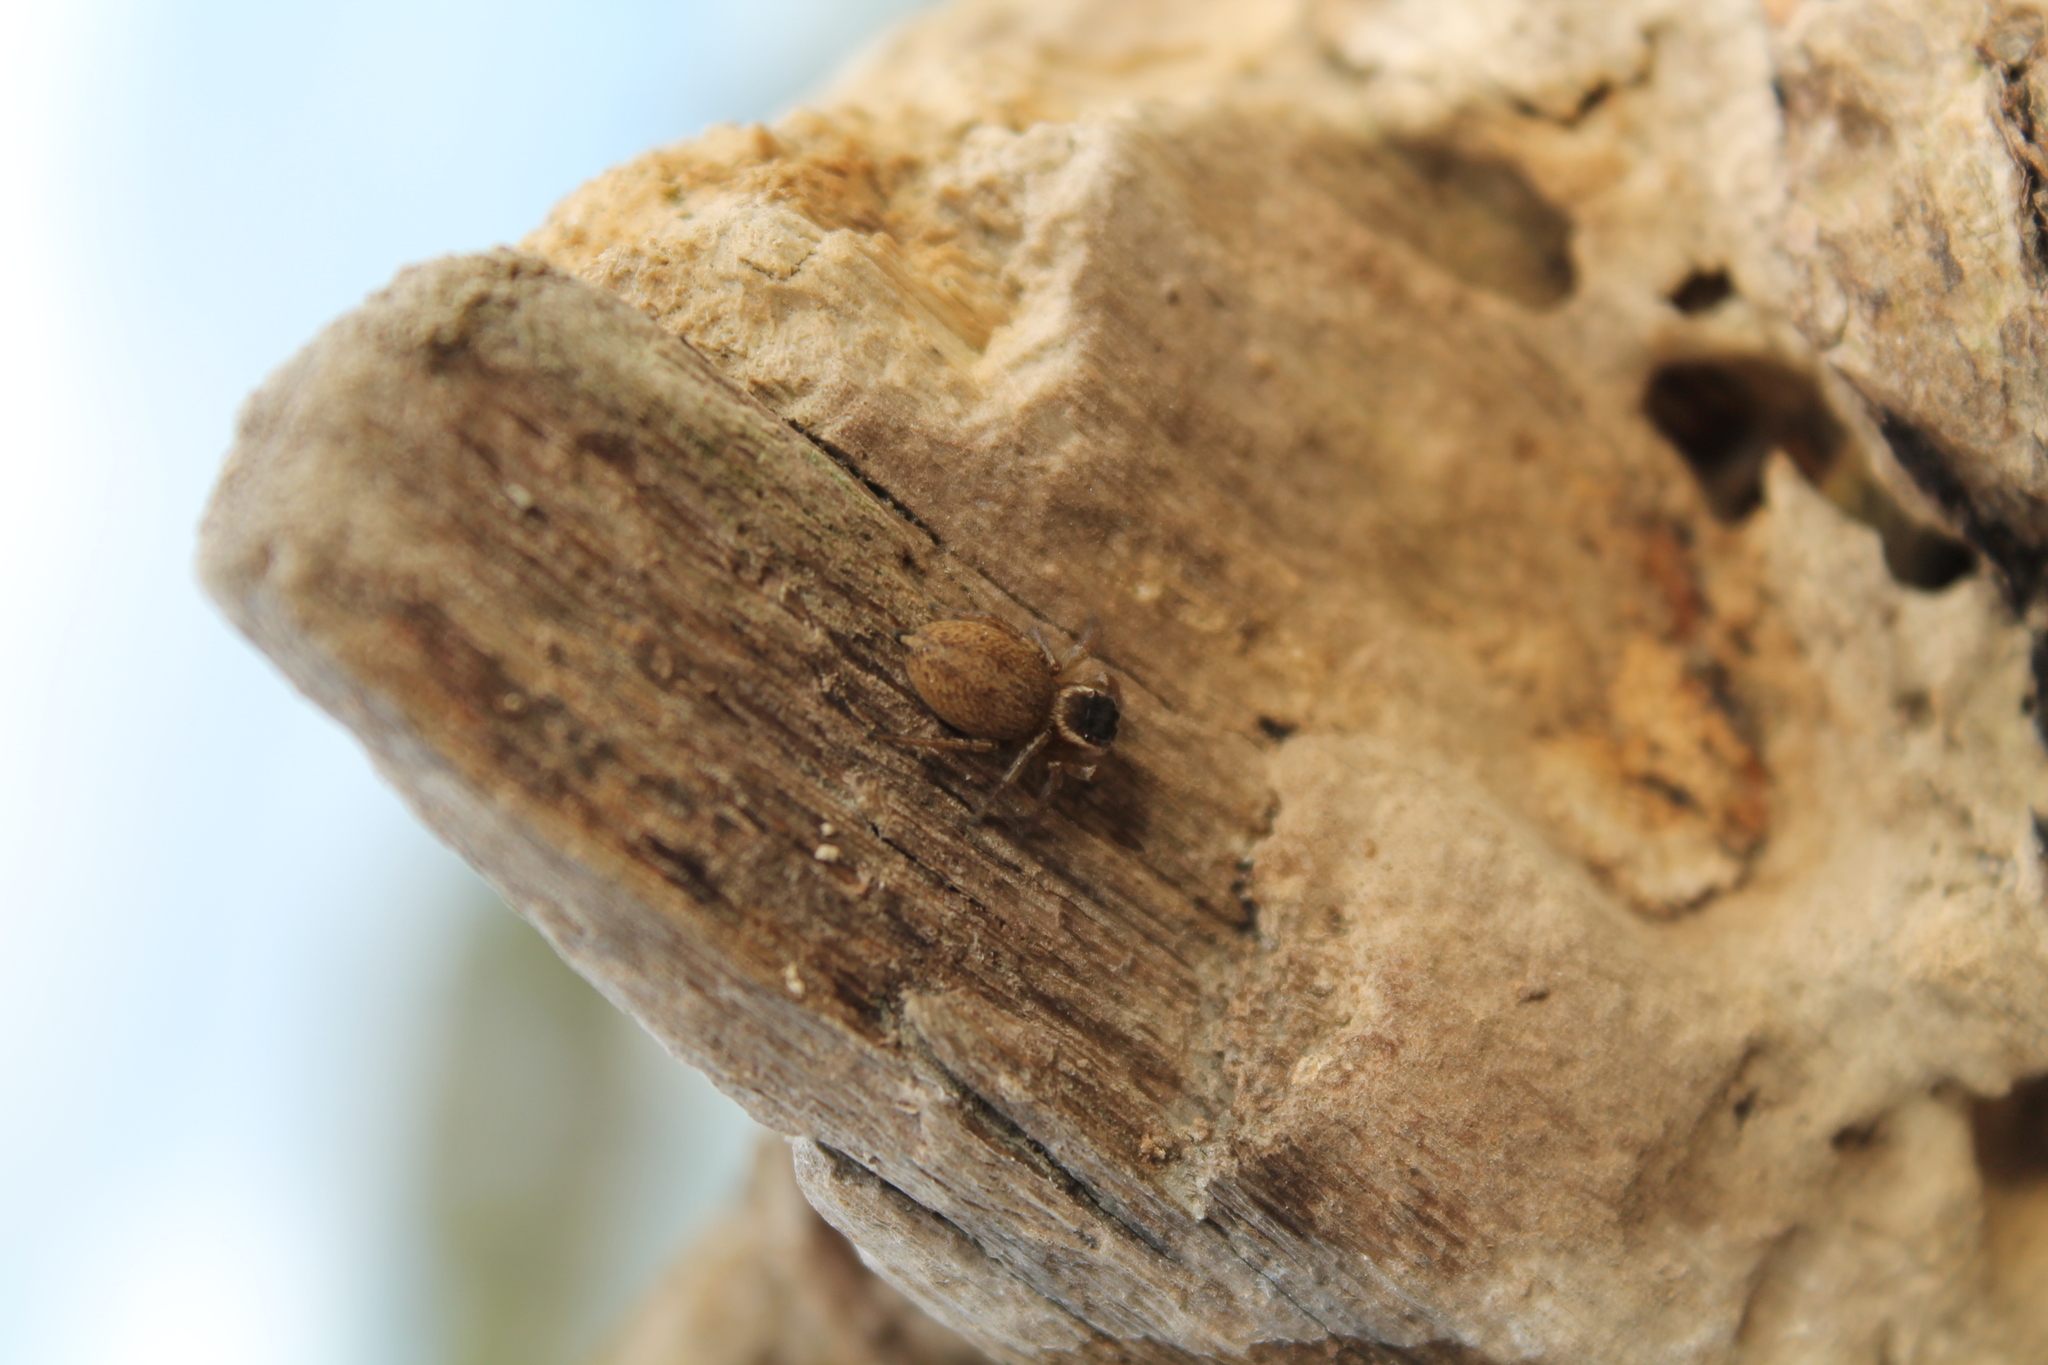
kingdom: Animalia
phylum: Arthropoda
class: Arachnida
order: Araneae
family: Salticidae
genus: Maratus
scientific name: Maratus griseus
